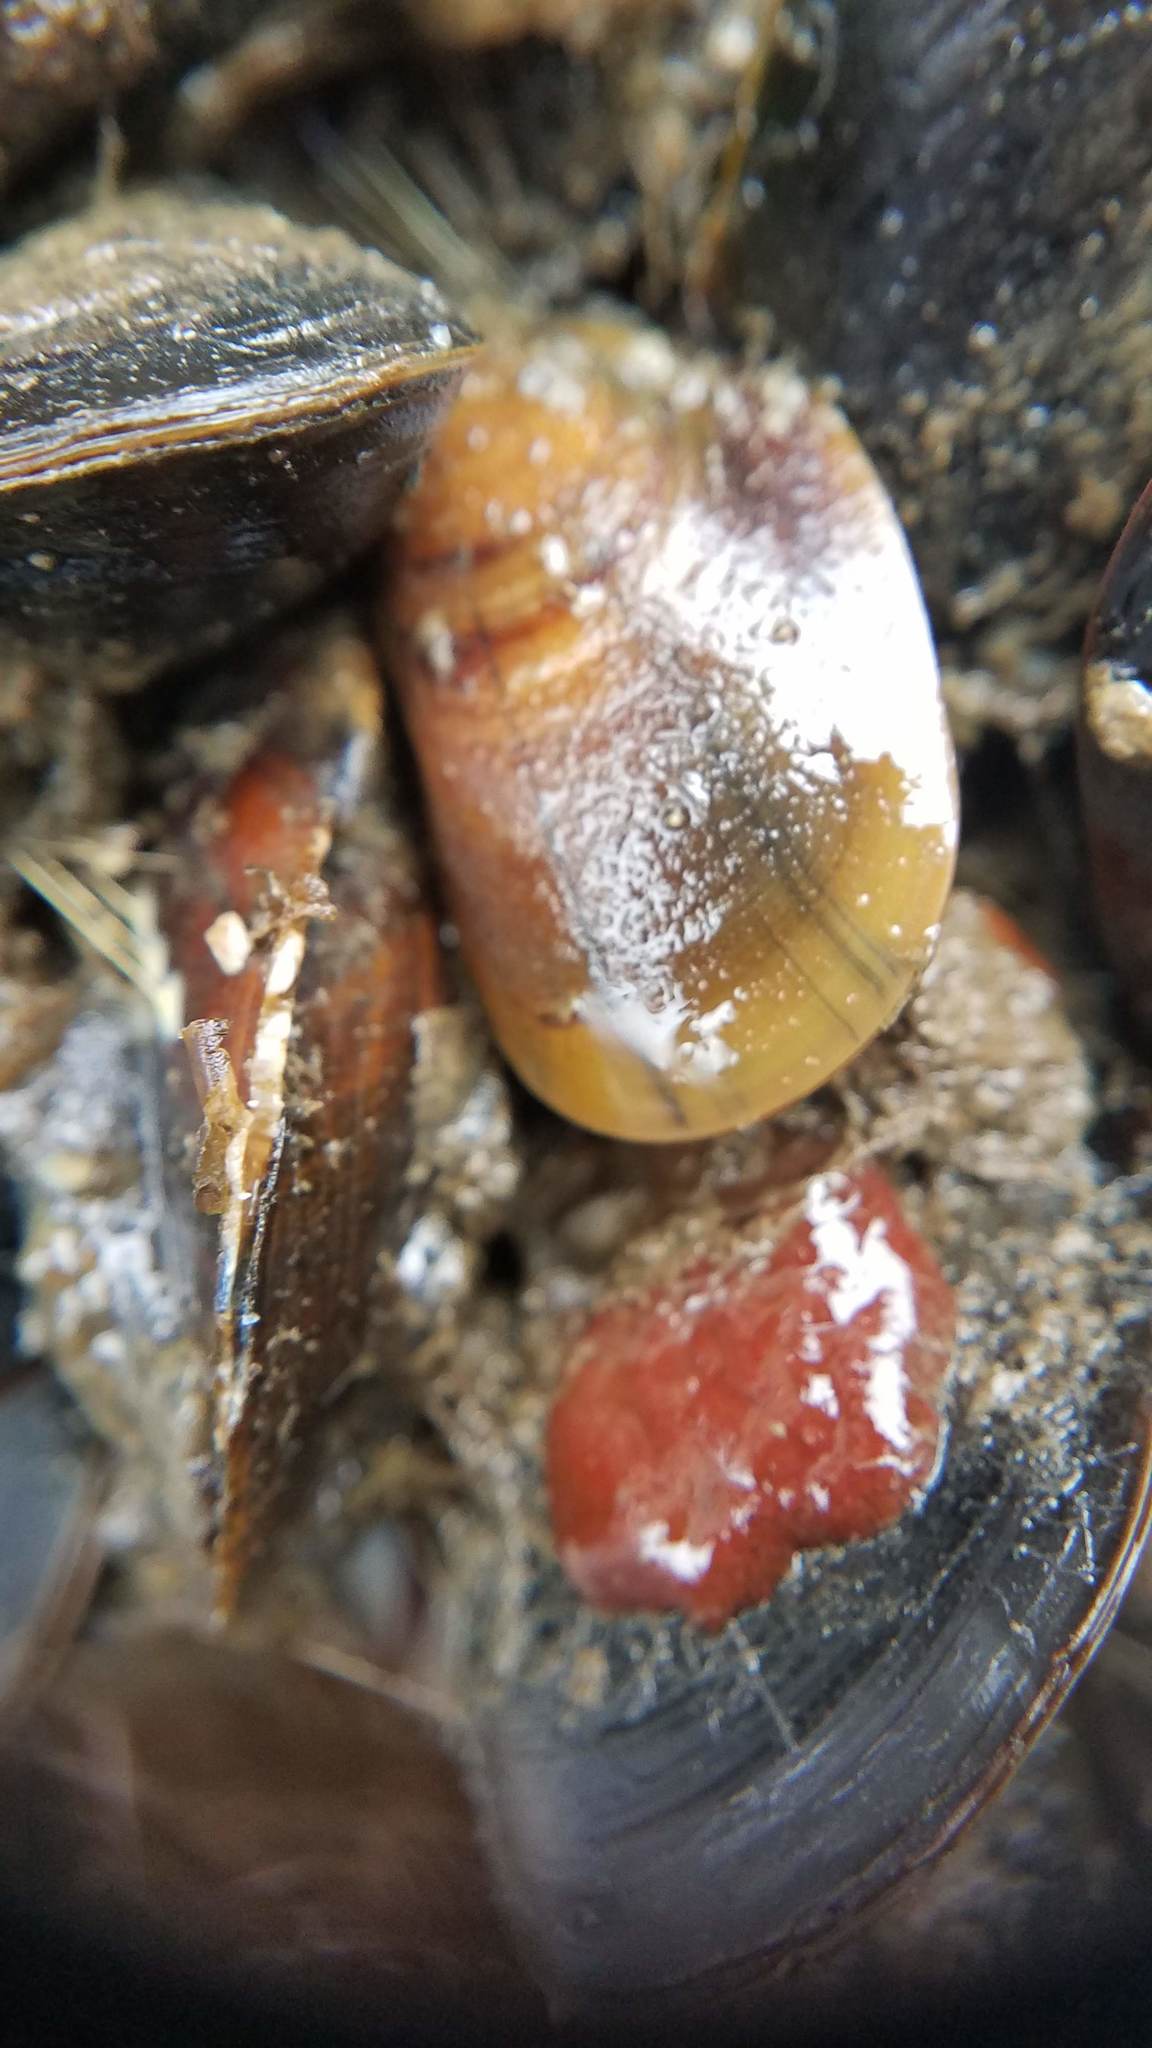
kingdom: Animalia
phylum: Mollusca
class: Bivalvia
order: Mytilida
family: Mytilidae
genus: Mytilus
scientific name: Mytilus
